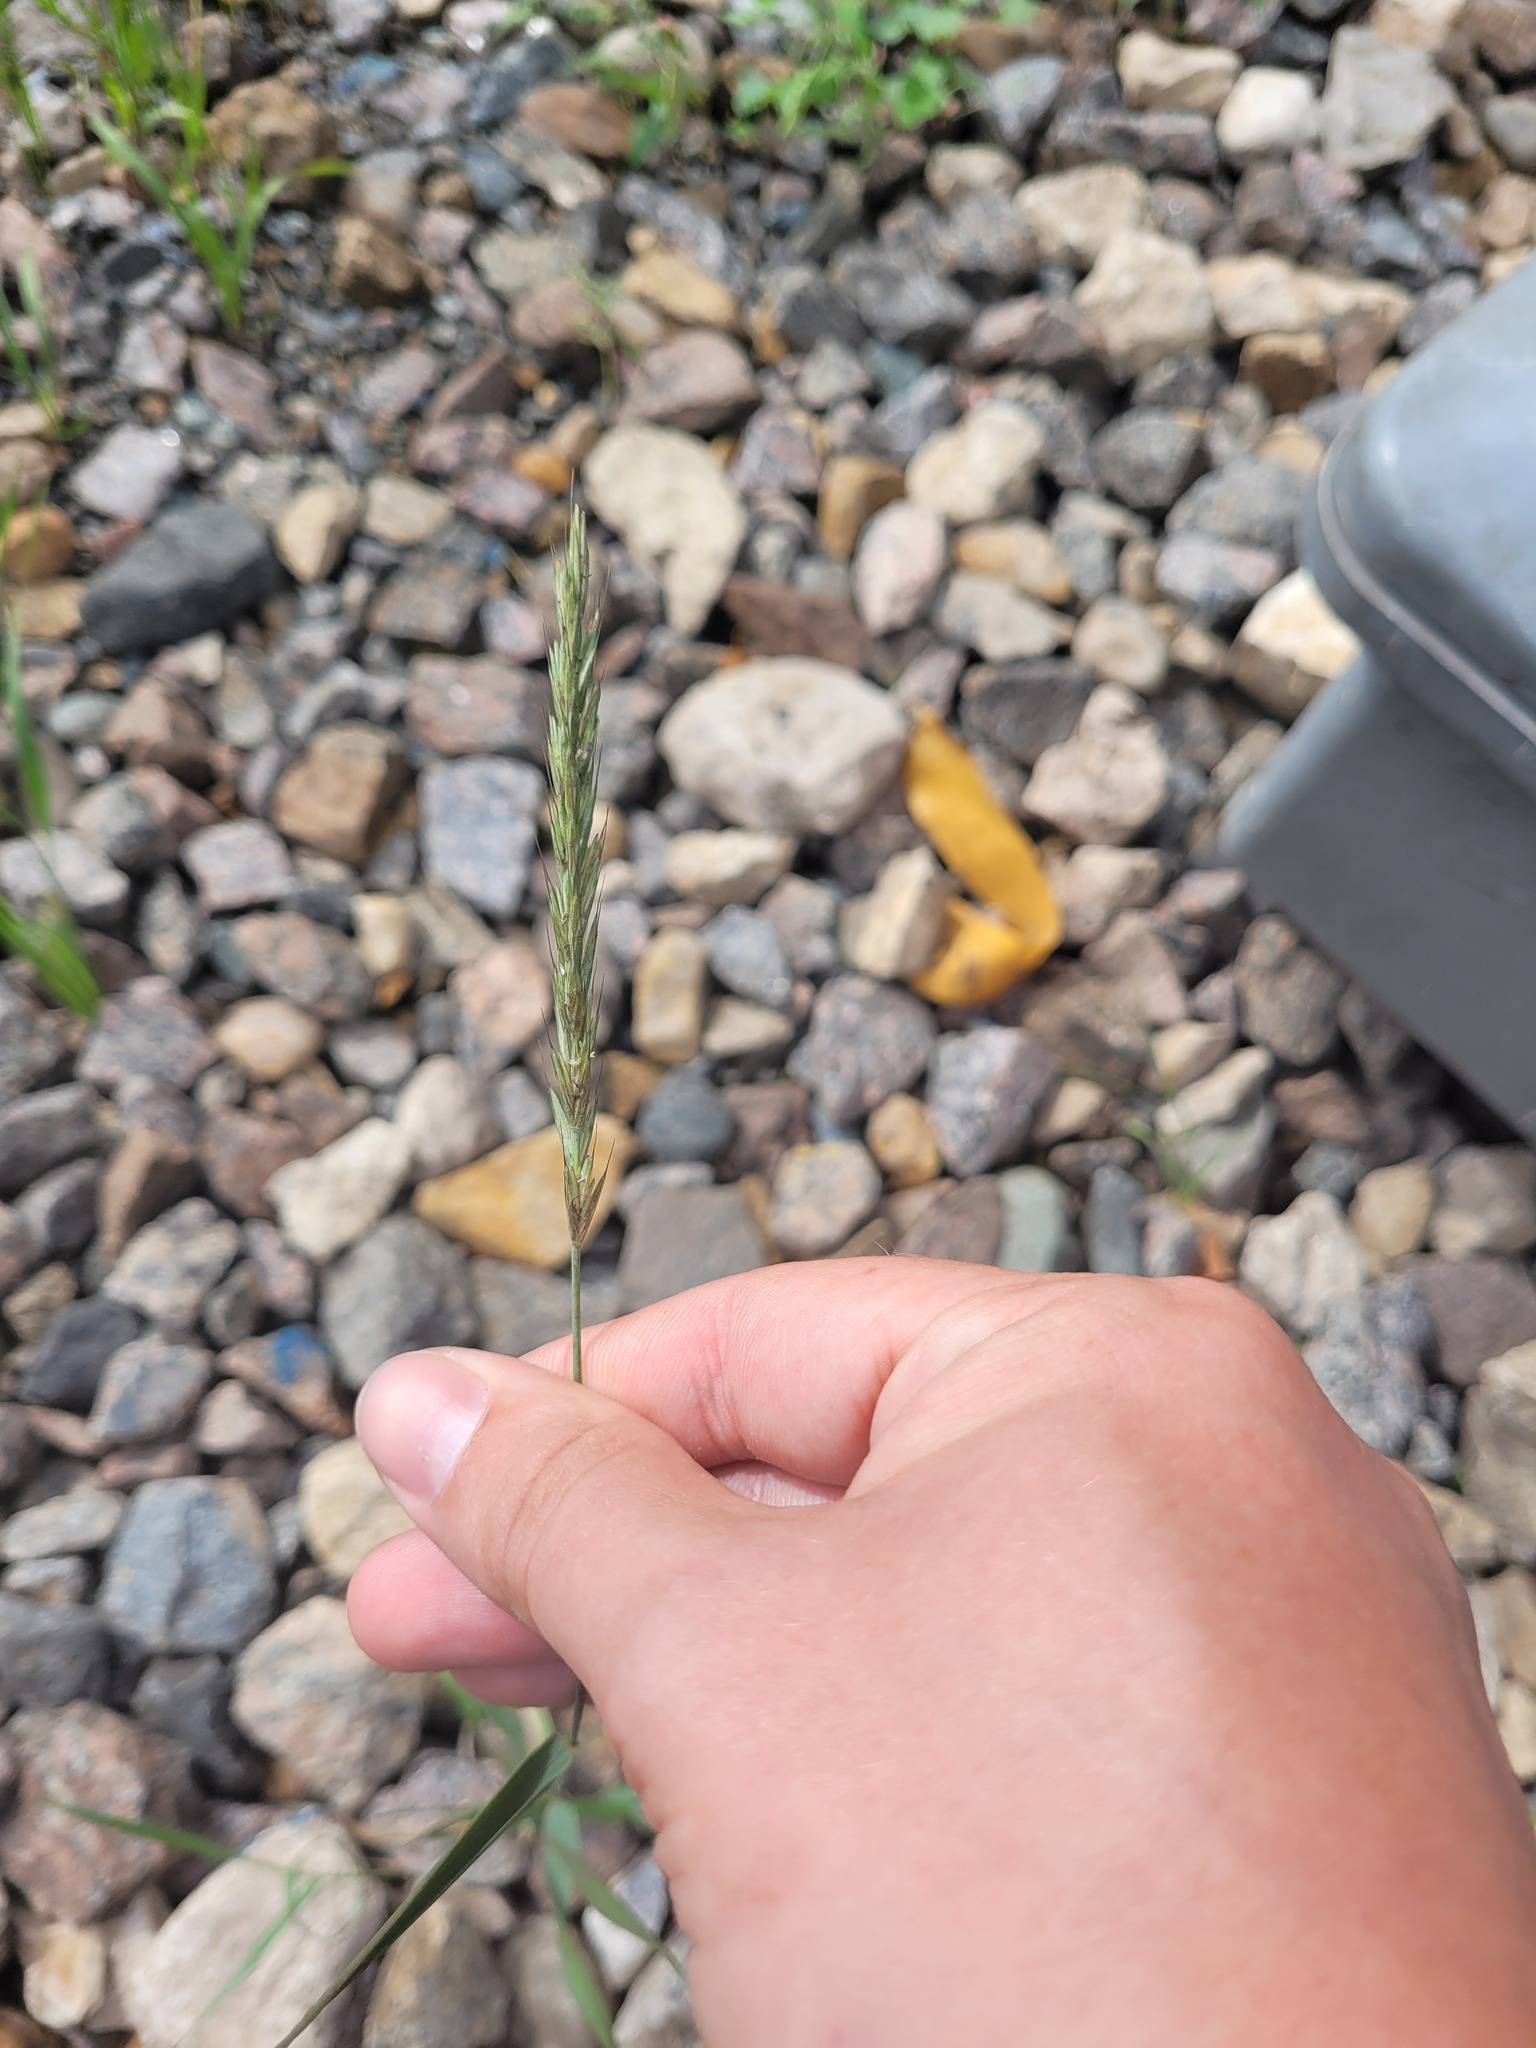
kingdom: Plantae
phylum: Tracheophyta
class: Liliopsida
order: Poales
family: Poaceae
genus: Elymus
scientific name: Elymus repens
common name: Quackgrass
